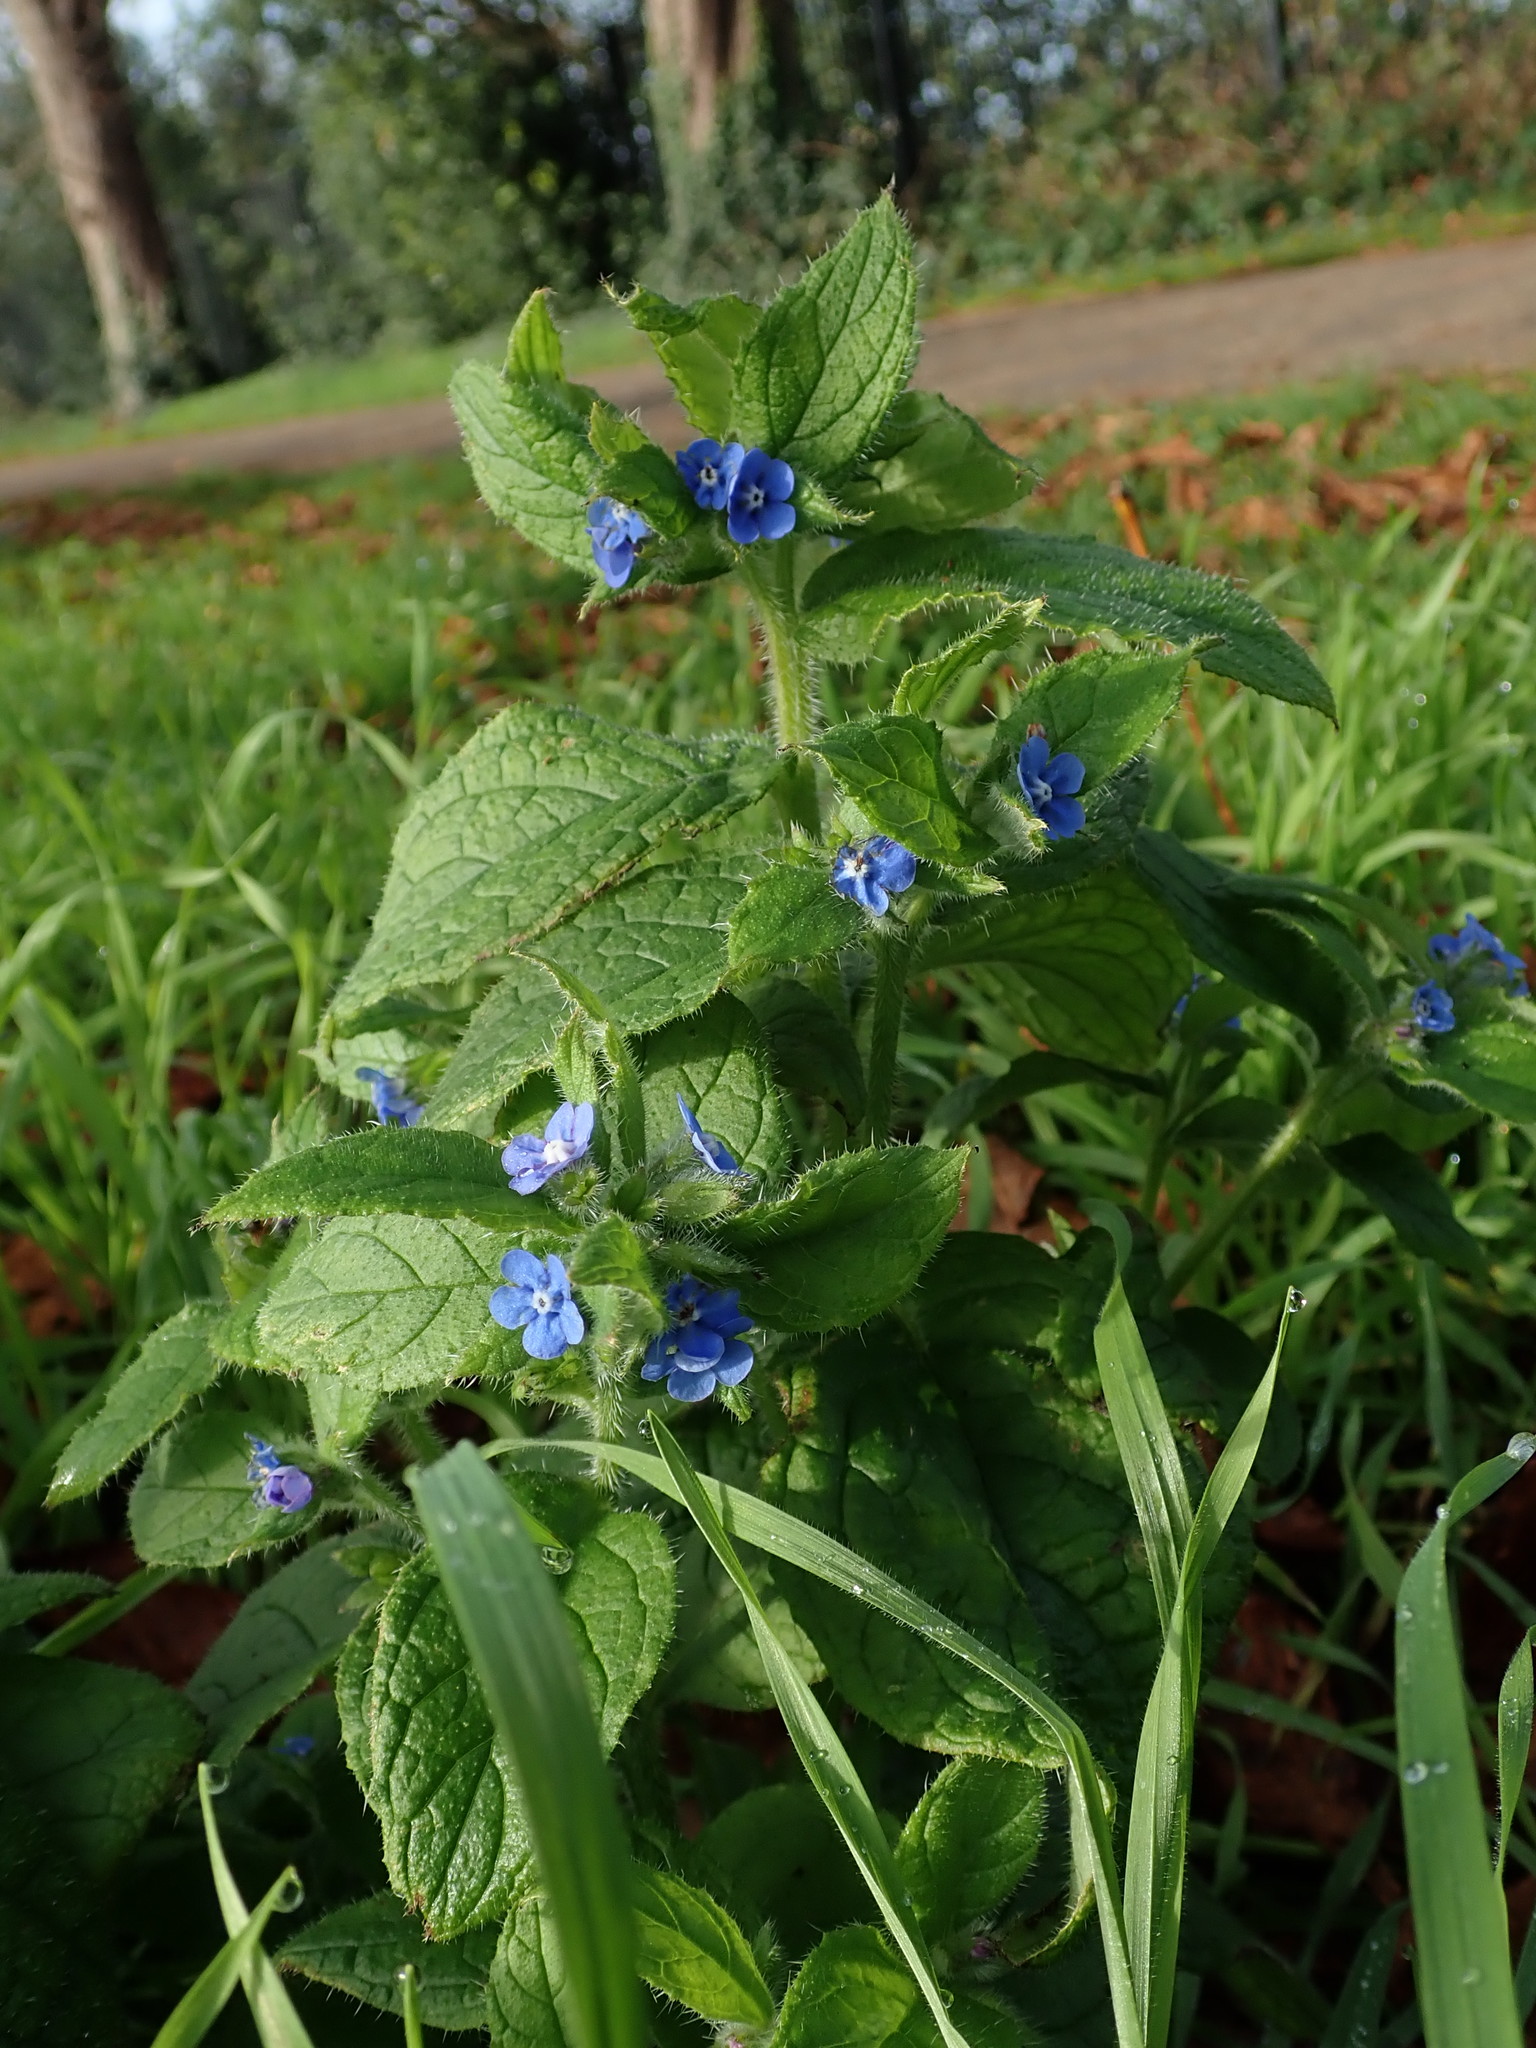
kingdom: Plantae
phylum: Tracheophyta
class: Magnoliopsida
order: Boraginales
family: Boraginaceae
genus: Pentaglottis
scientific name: Pentaglottis sempervirens
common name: Green alkanet
